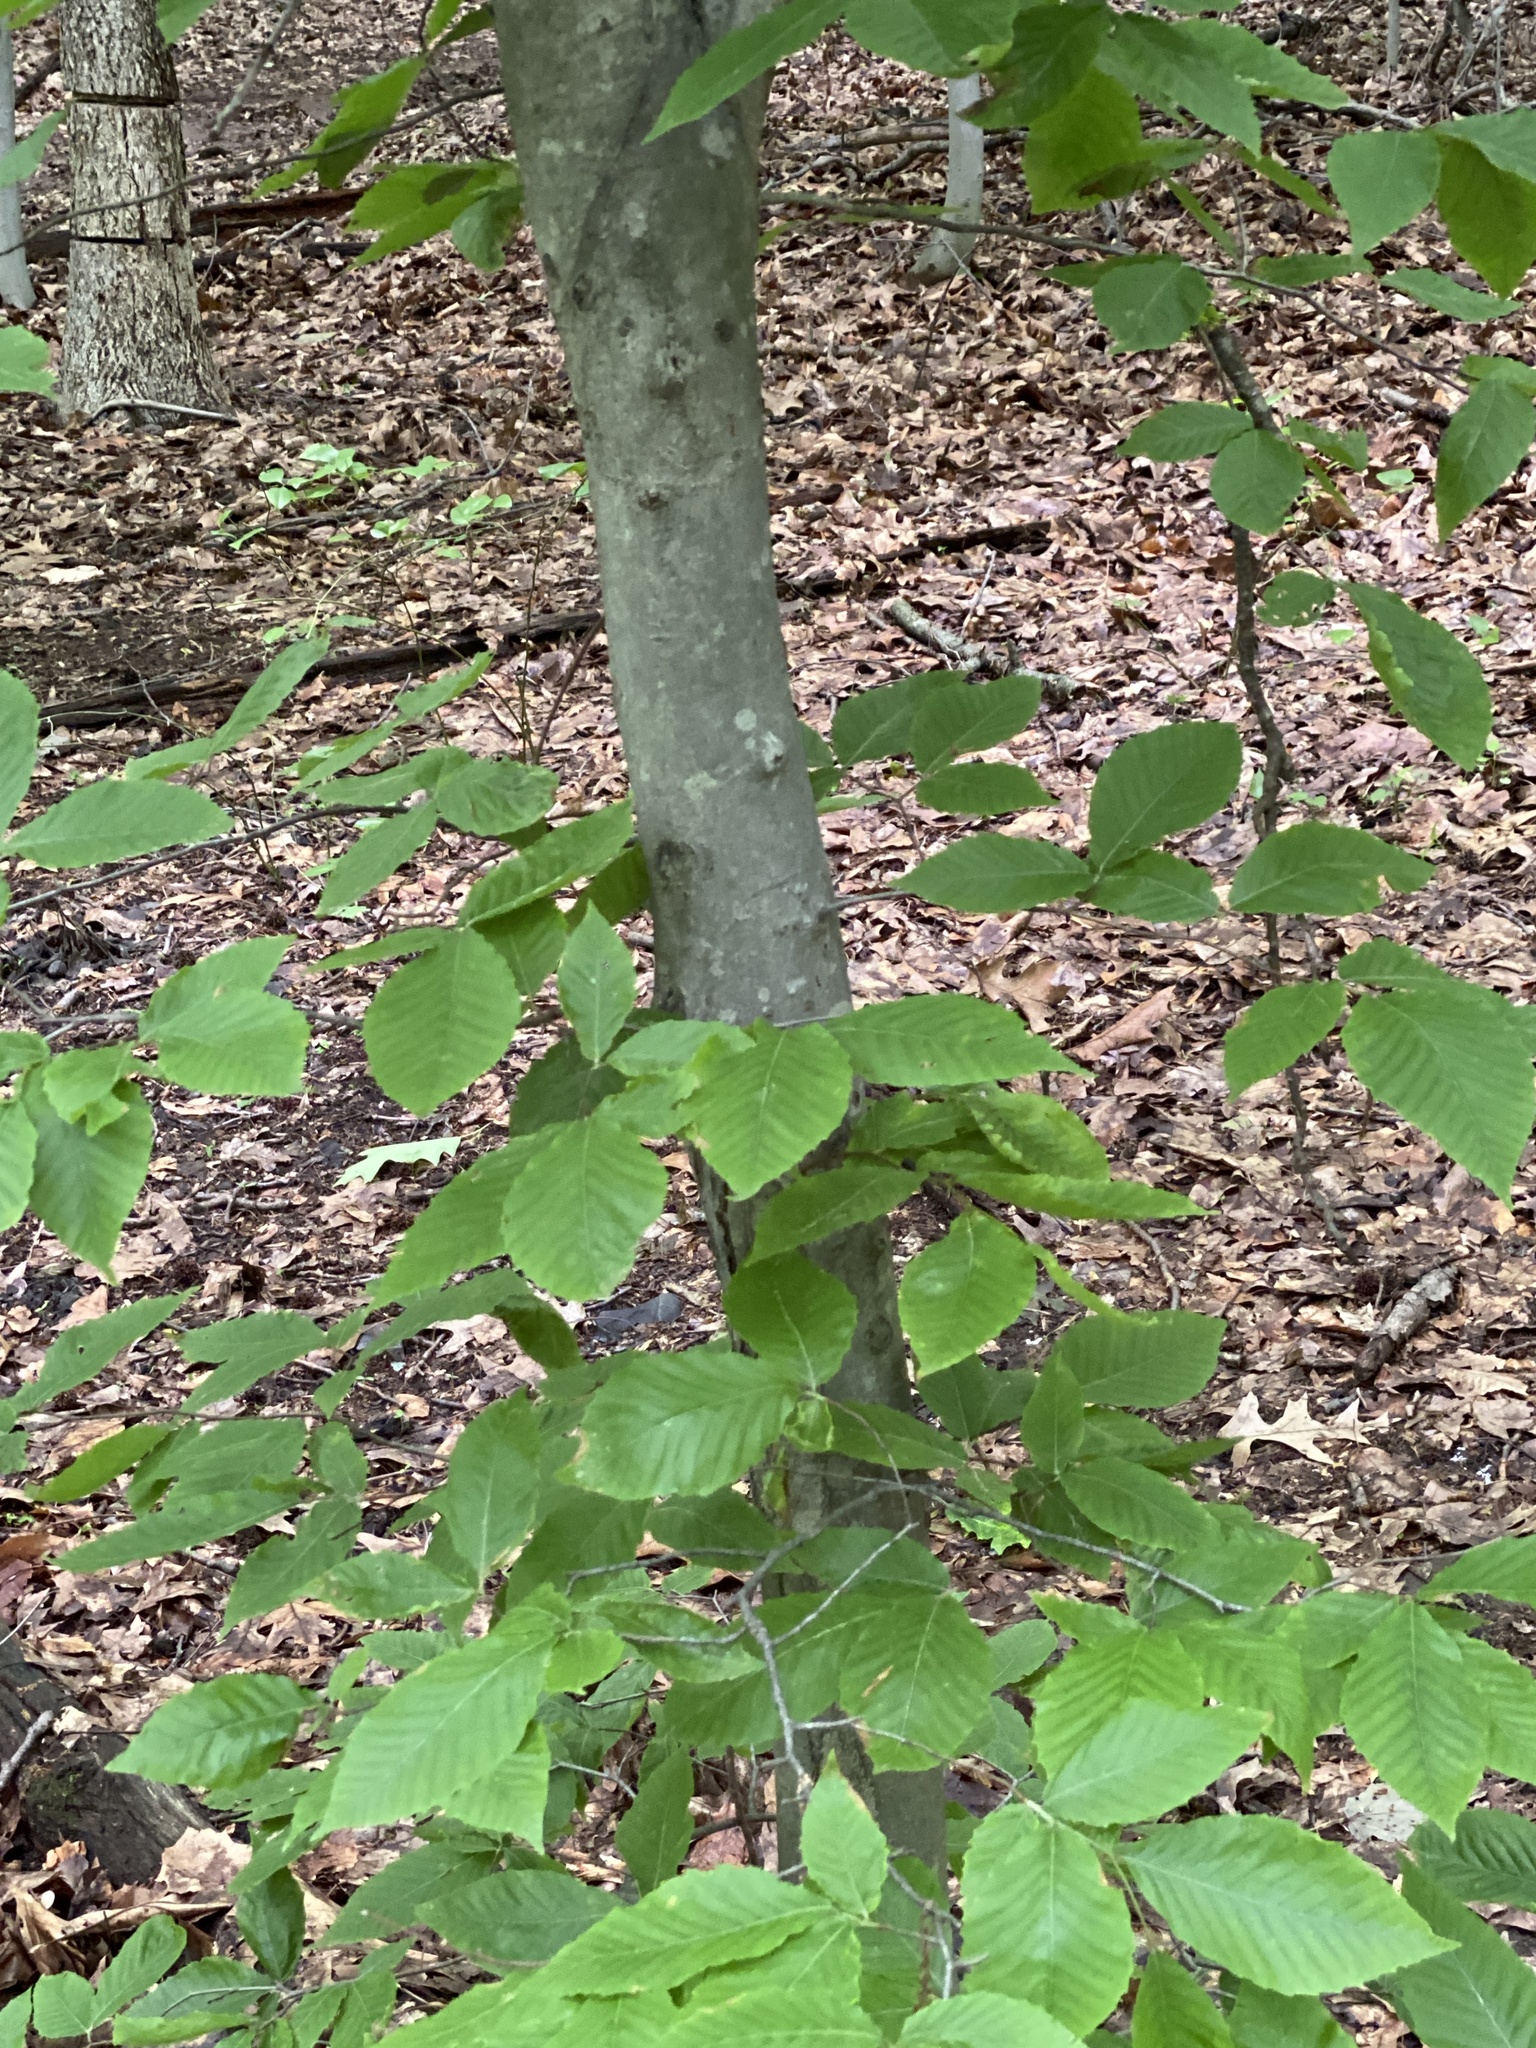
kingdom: Plantae
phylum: Tracheophyta
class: Magnoliopsida
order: Fagales
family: Fagaceae
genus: Fagus
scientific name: Fagus grandifolia
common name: American beech
